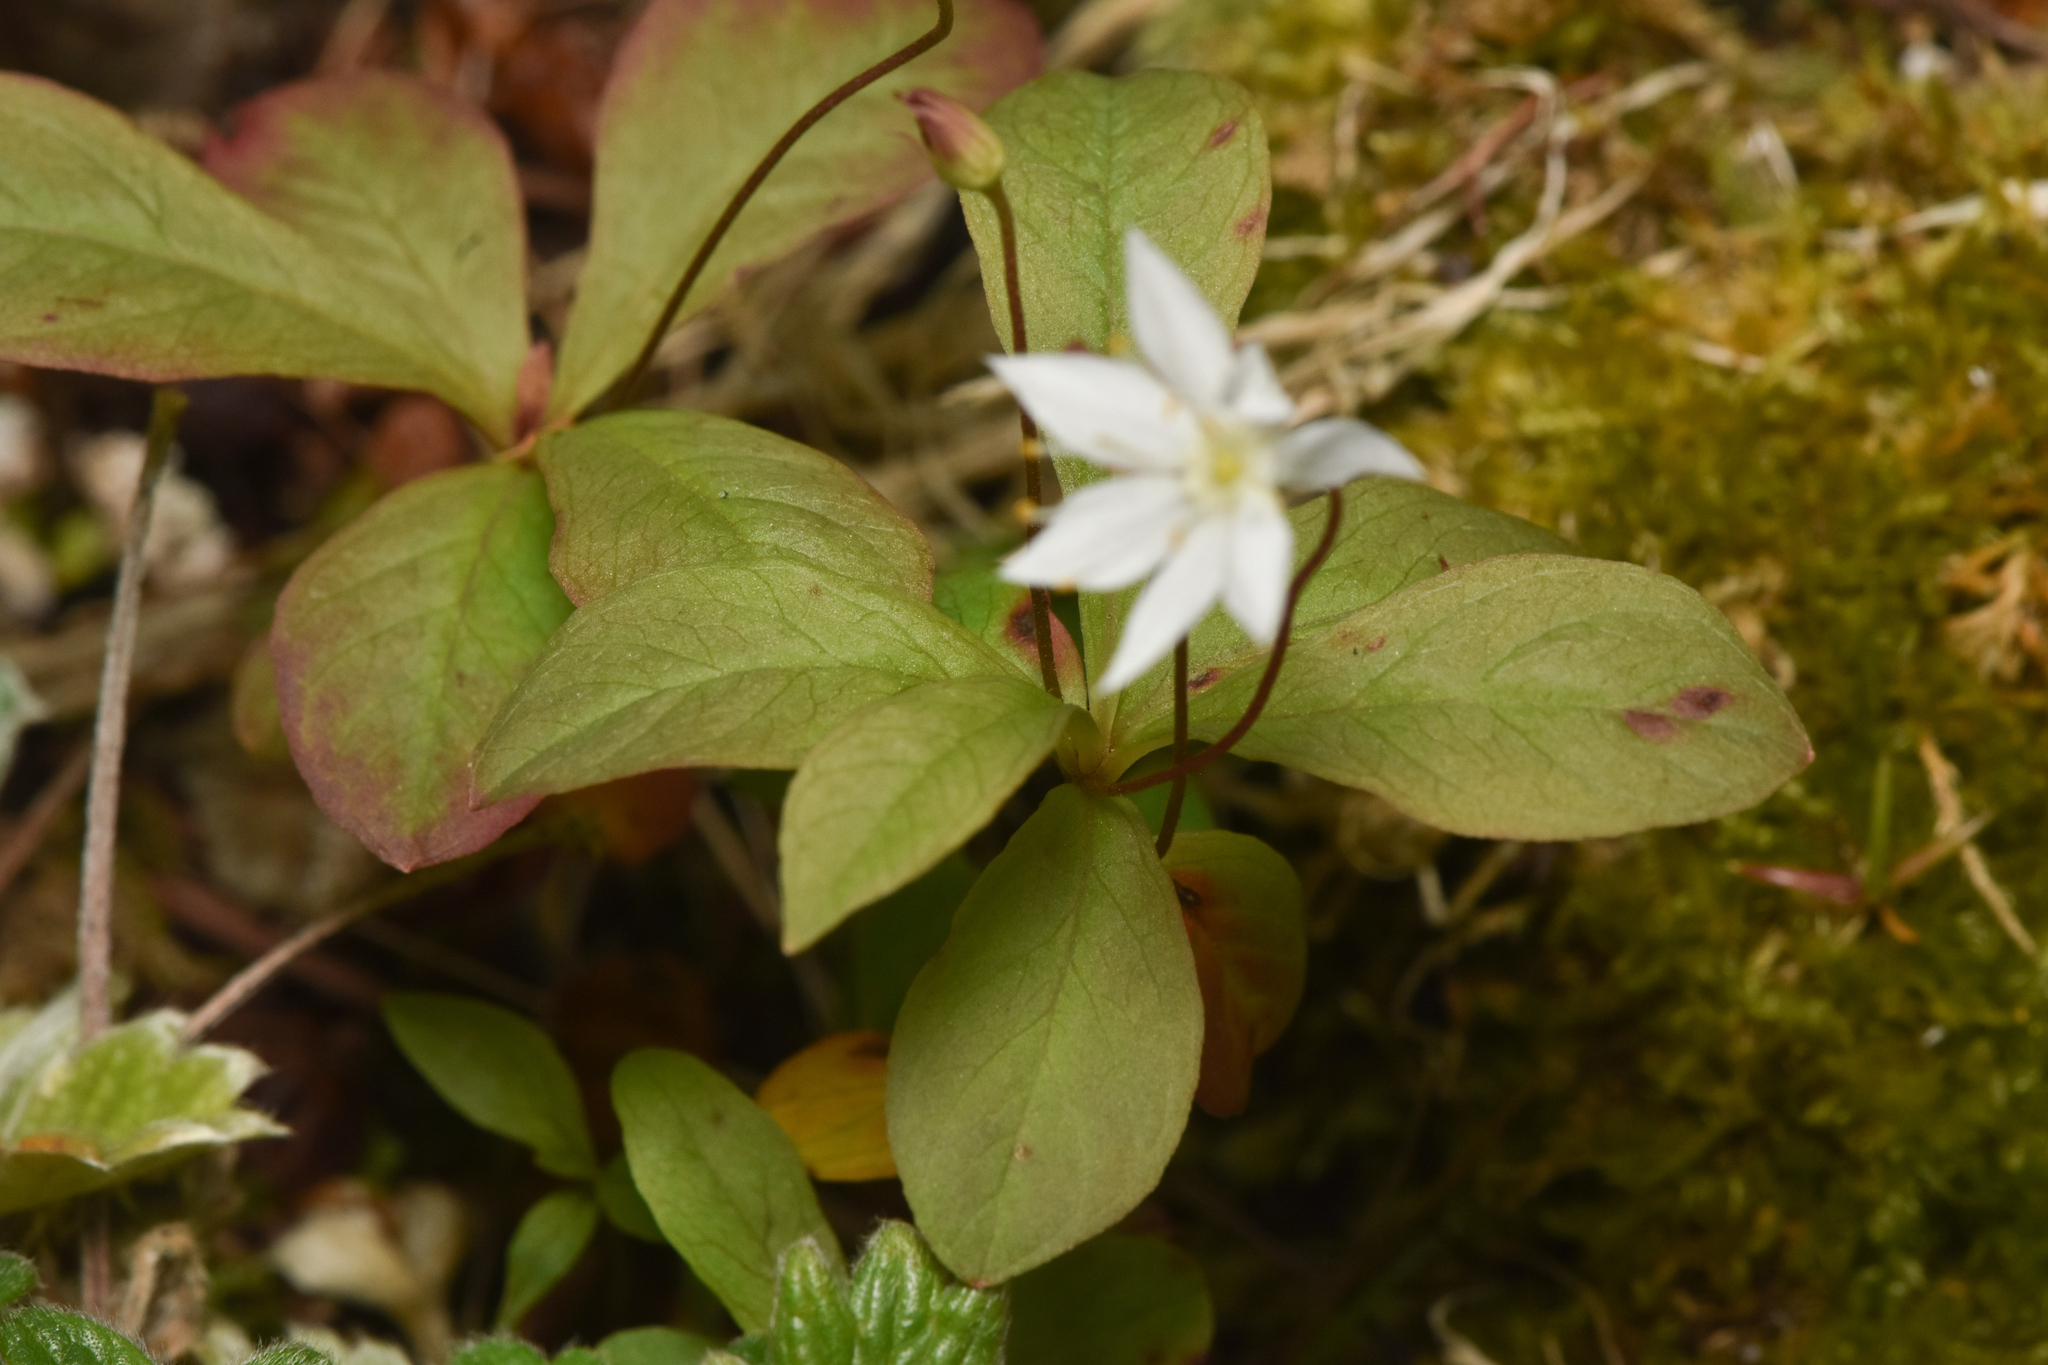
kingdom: Plantae
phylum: Tracheophyta
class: Magnoliopsida
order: Ericales
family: Primulaceae
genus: Lysimachia
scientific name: Lysimachia europaea
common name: Arctic starflower
